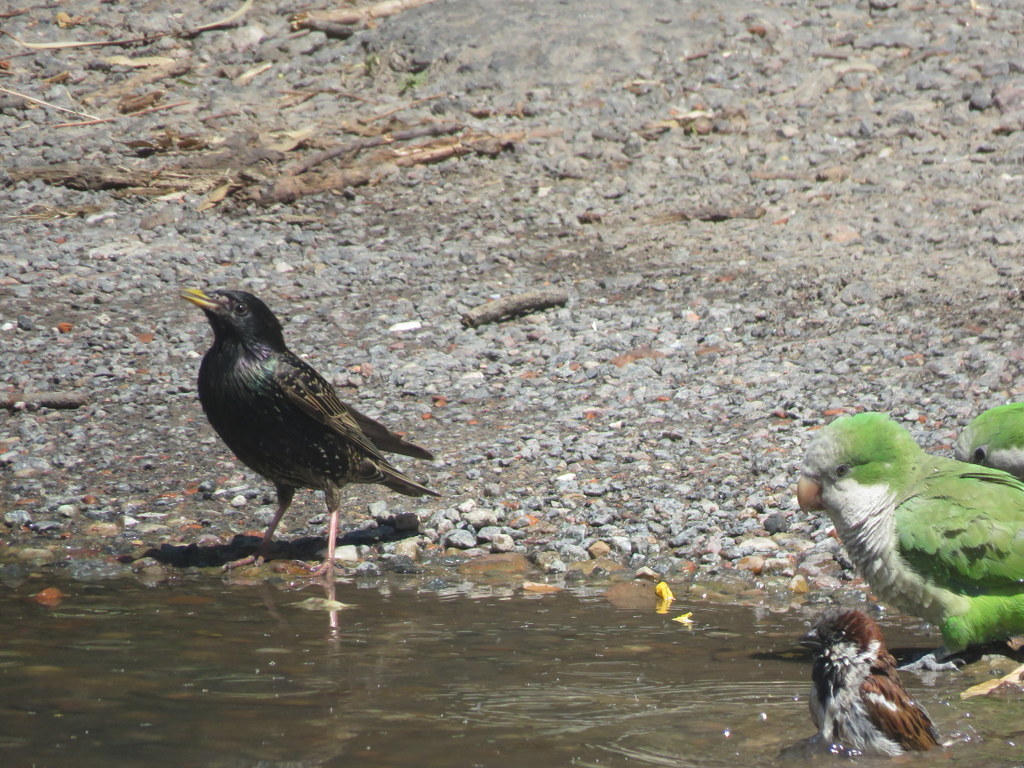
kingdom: Animalia
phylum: Chordata
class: Aves
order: Passeriformes
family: Sturnidae
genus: Sturnus
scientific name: Sturnus vulgaris
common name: Common starling
